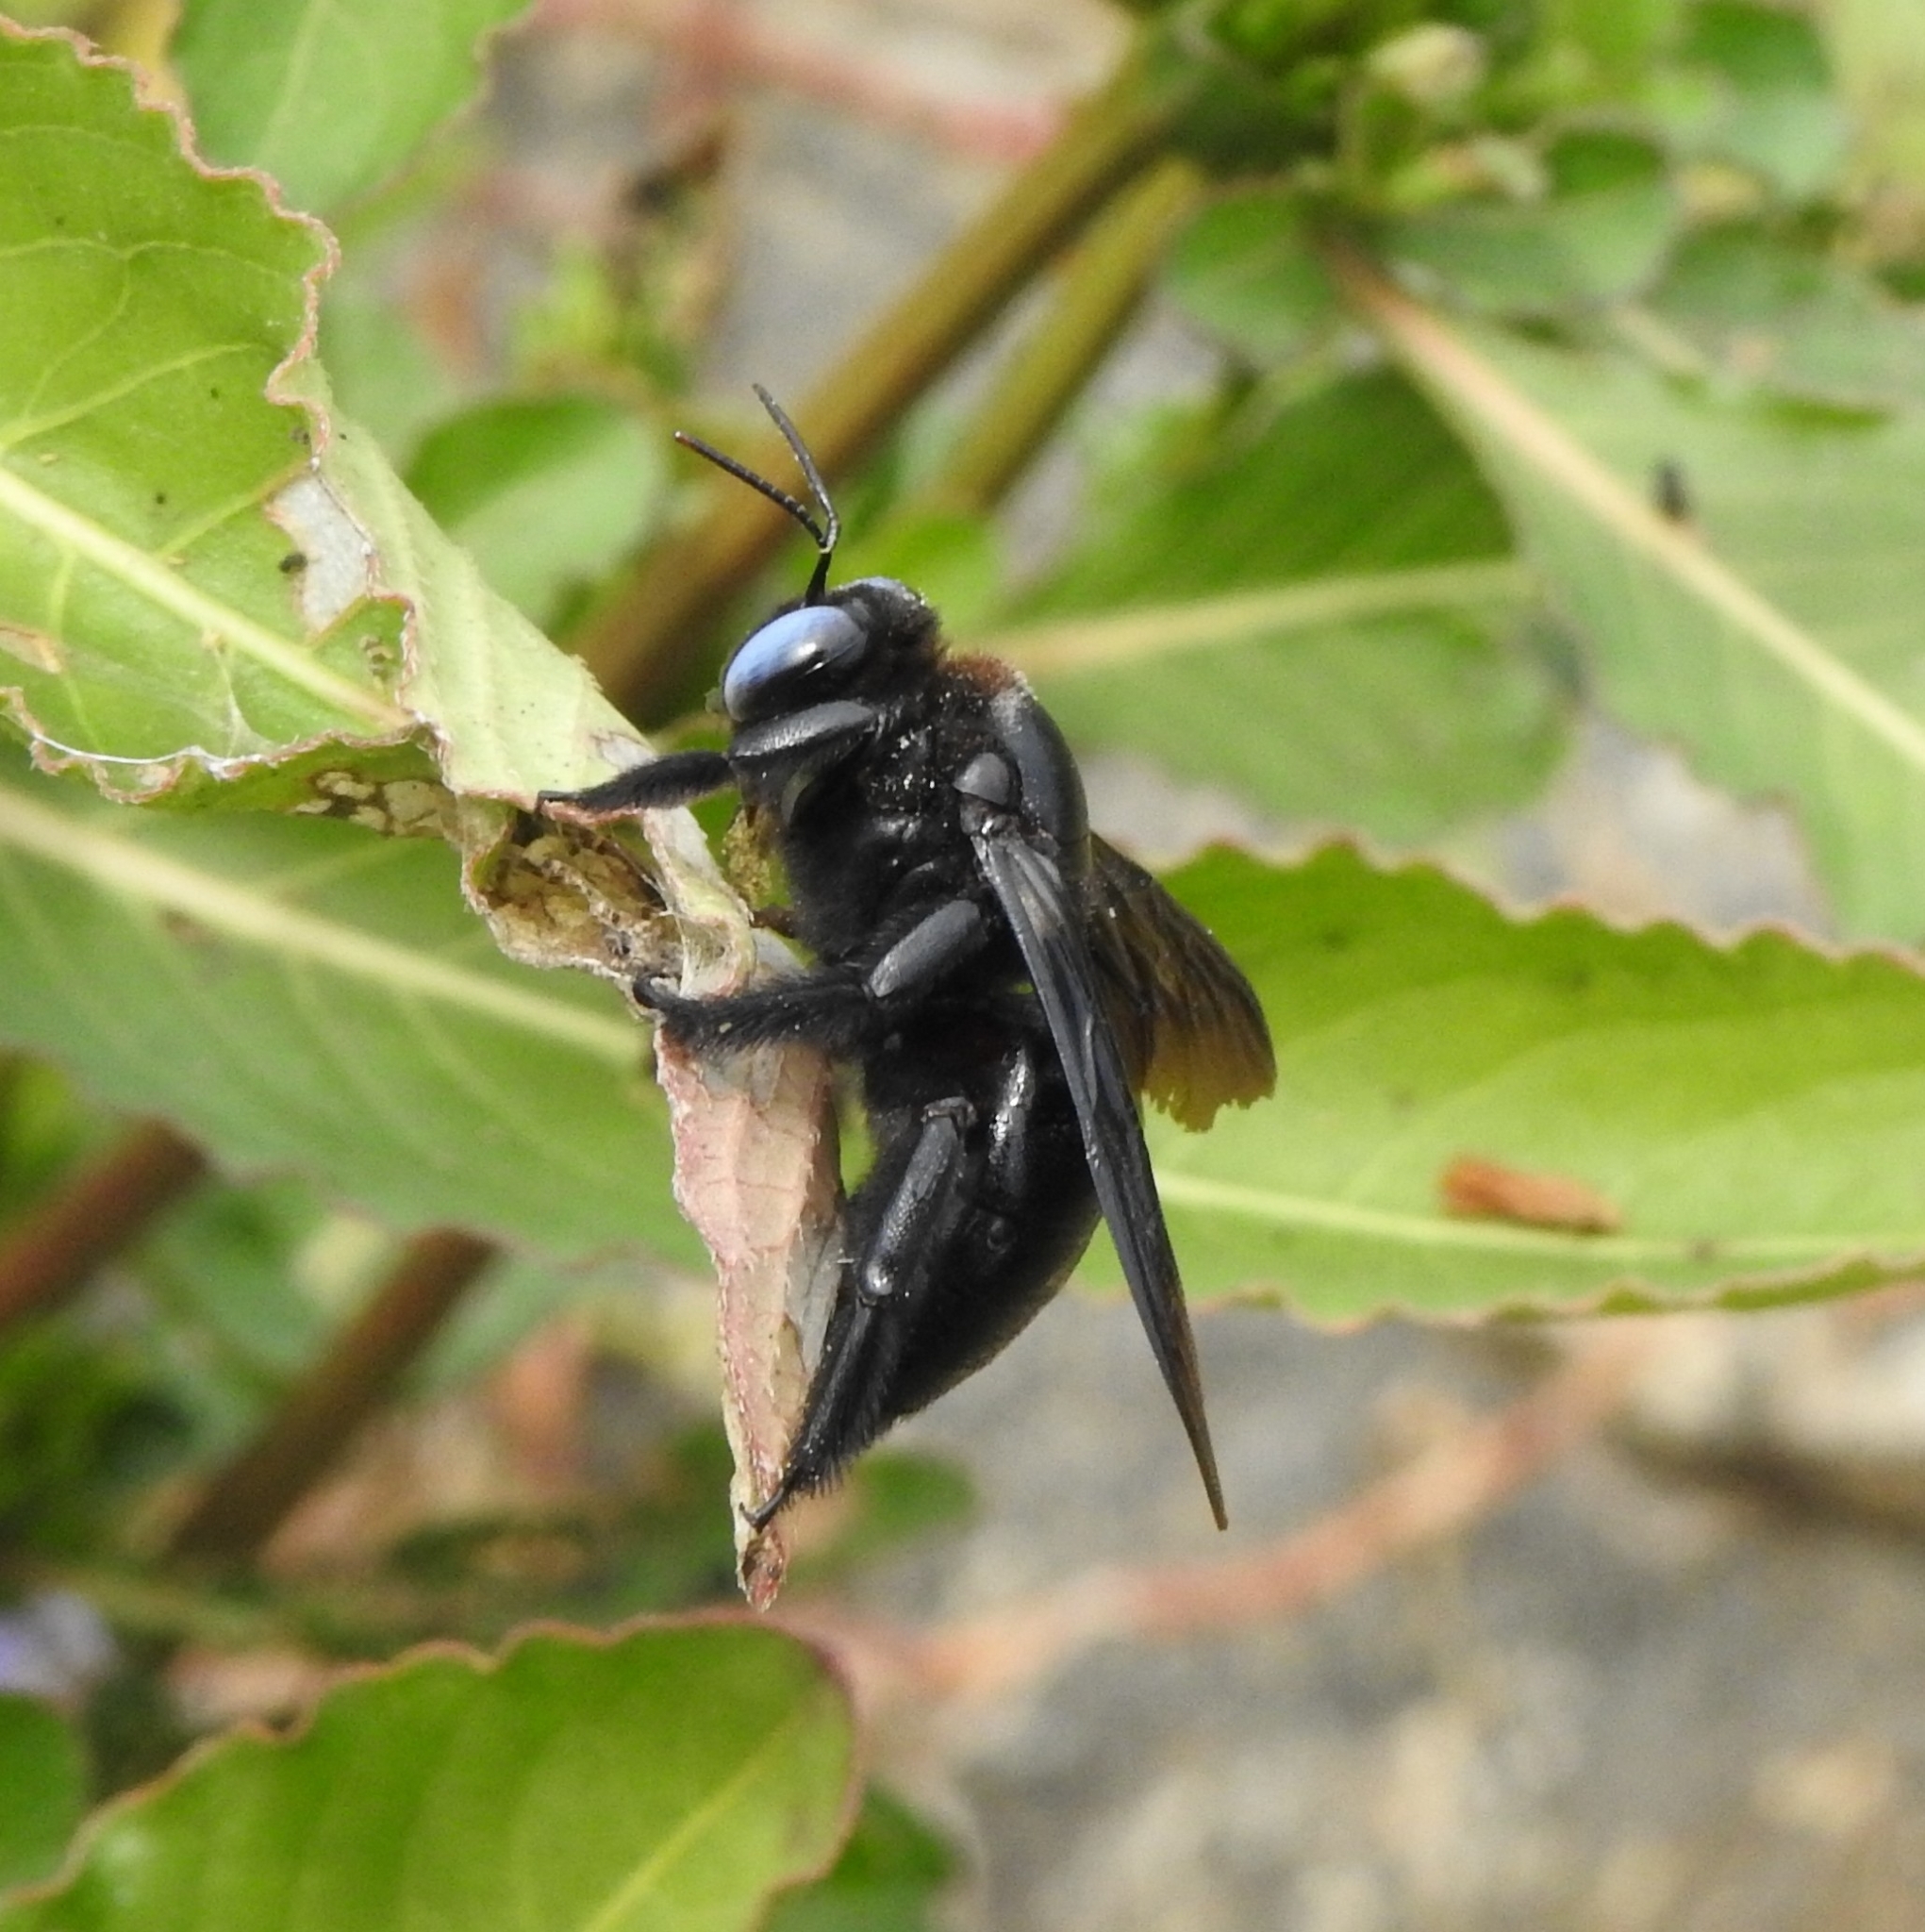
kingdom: Animalia
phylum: Arthropoda
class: Insecta
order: Hymenoptera
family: Apidae
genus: Xylocopa
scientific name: Xylocopa fenestrata
